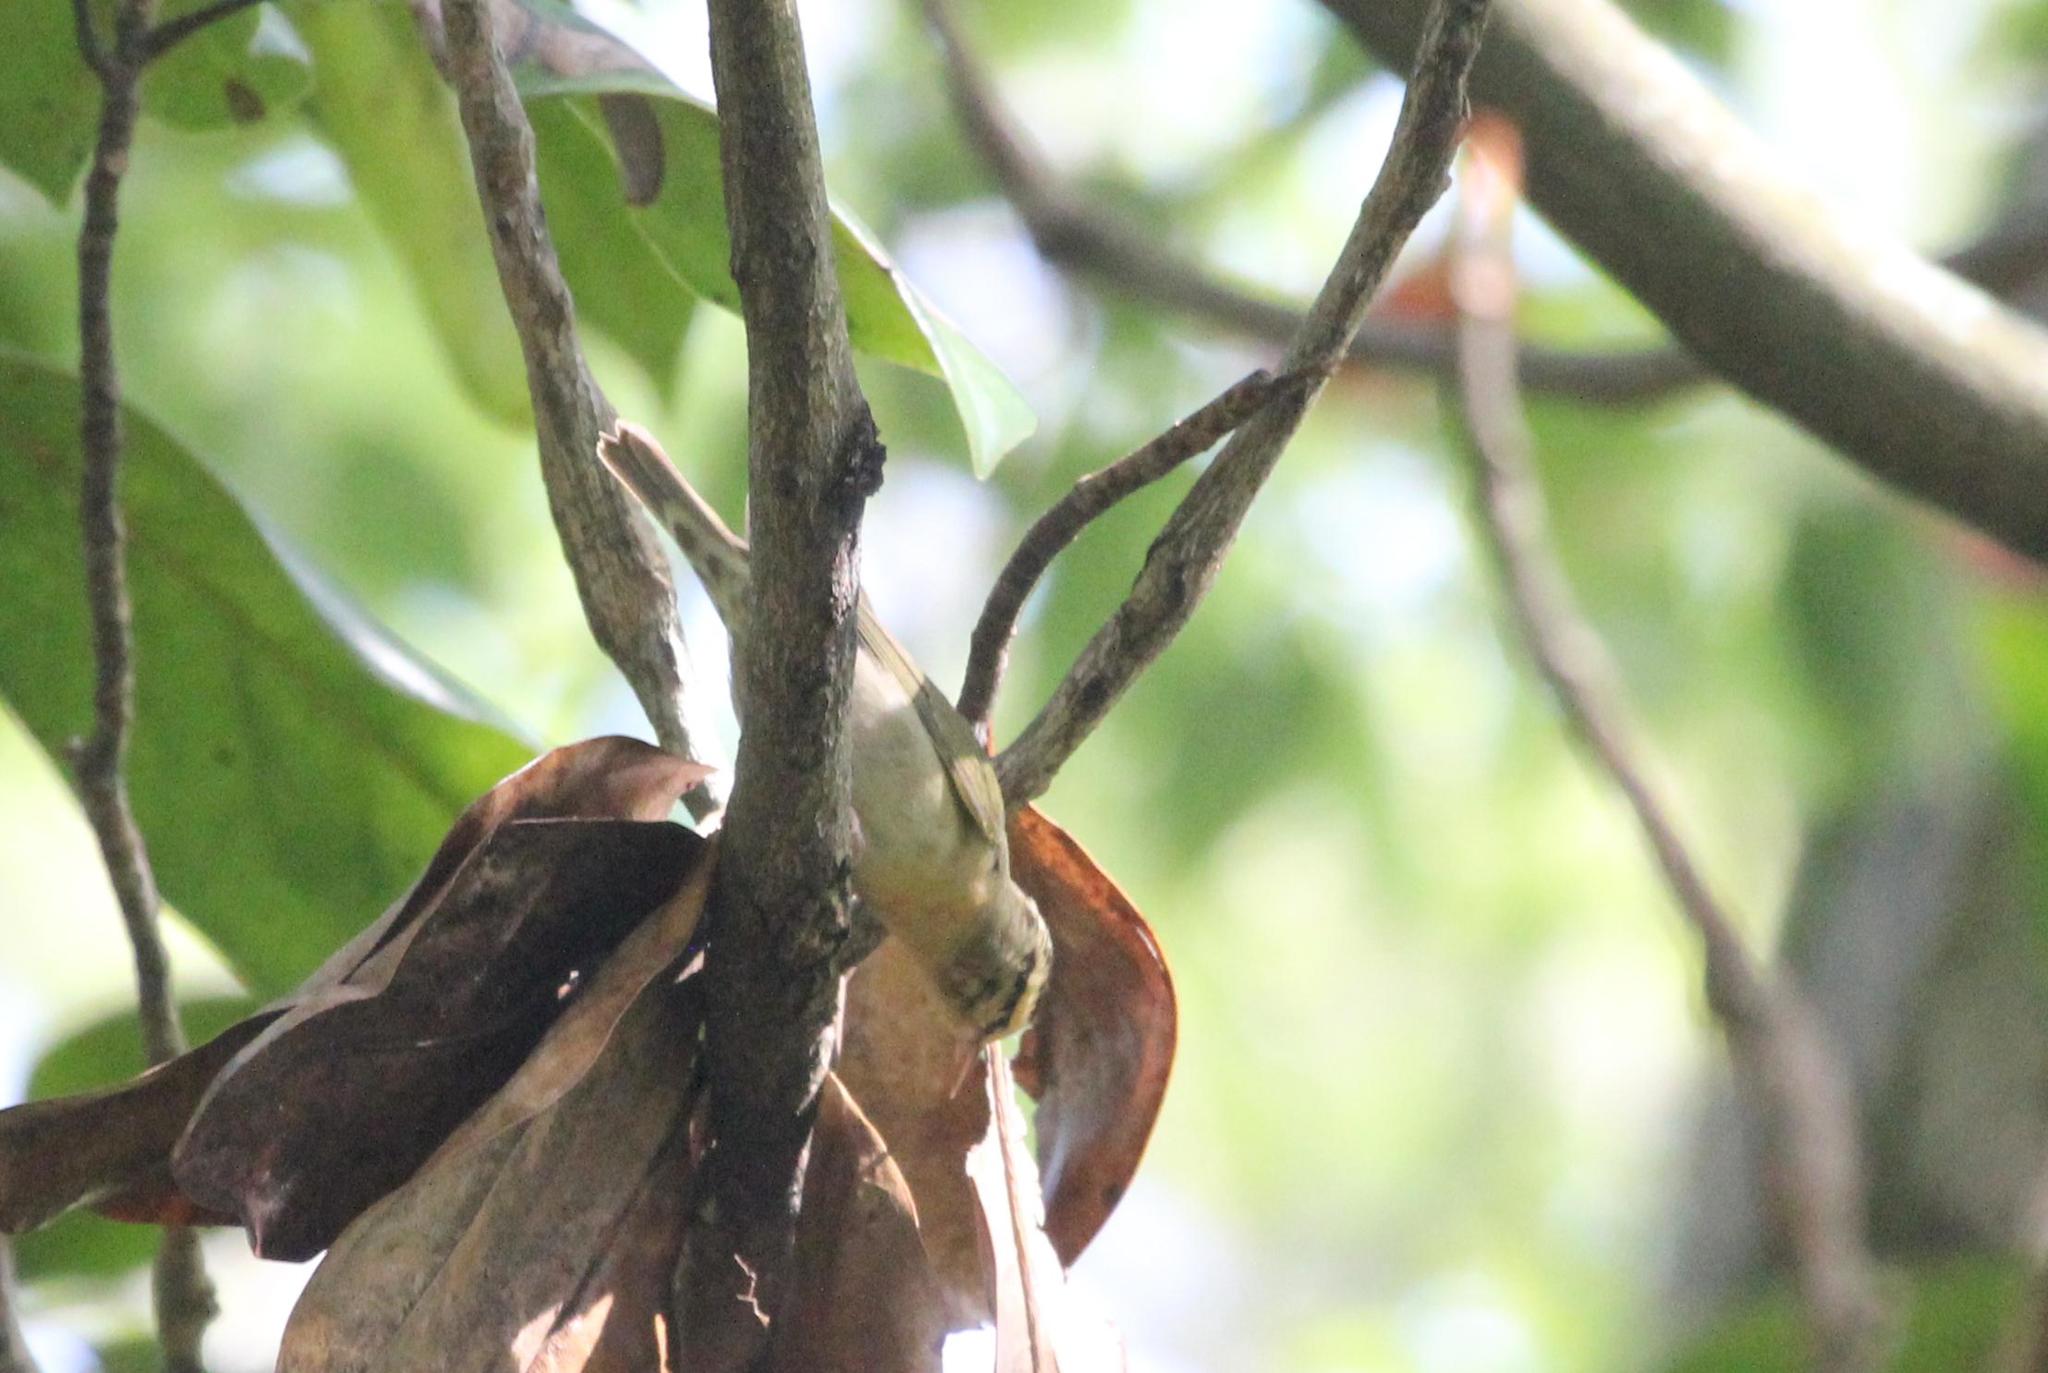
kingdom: Animalia
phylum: Chordata
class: Aves
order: Passeriformes
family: Parulidae
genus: Helmitheros
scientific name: Helmitheros vermivorum
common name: Worm-eating warbler
